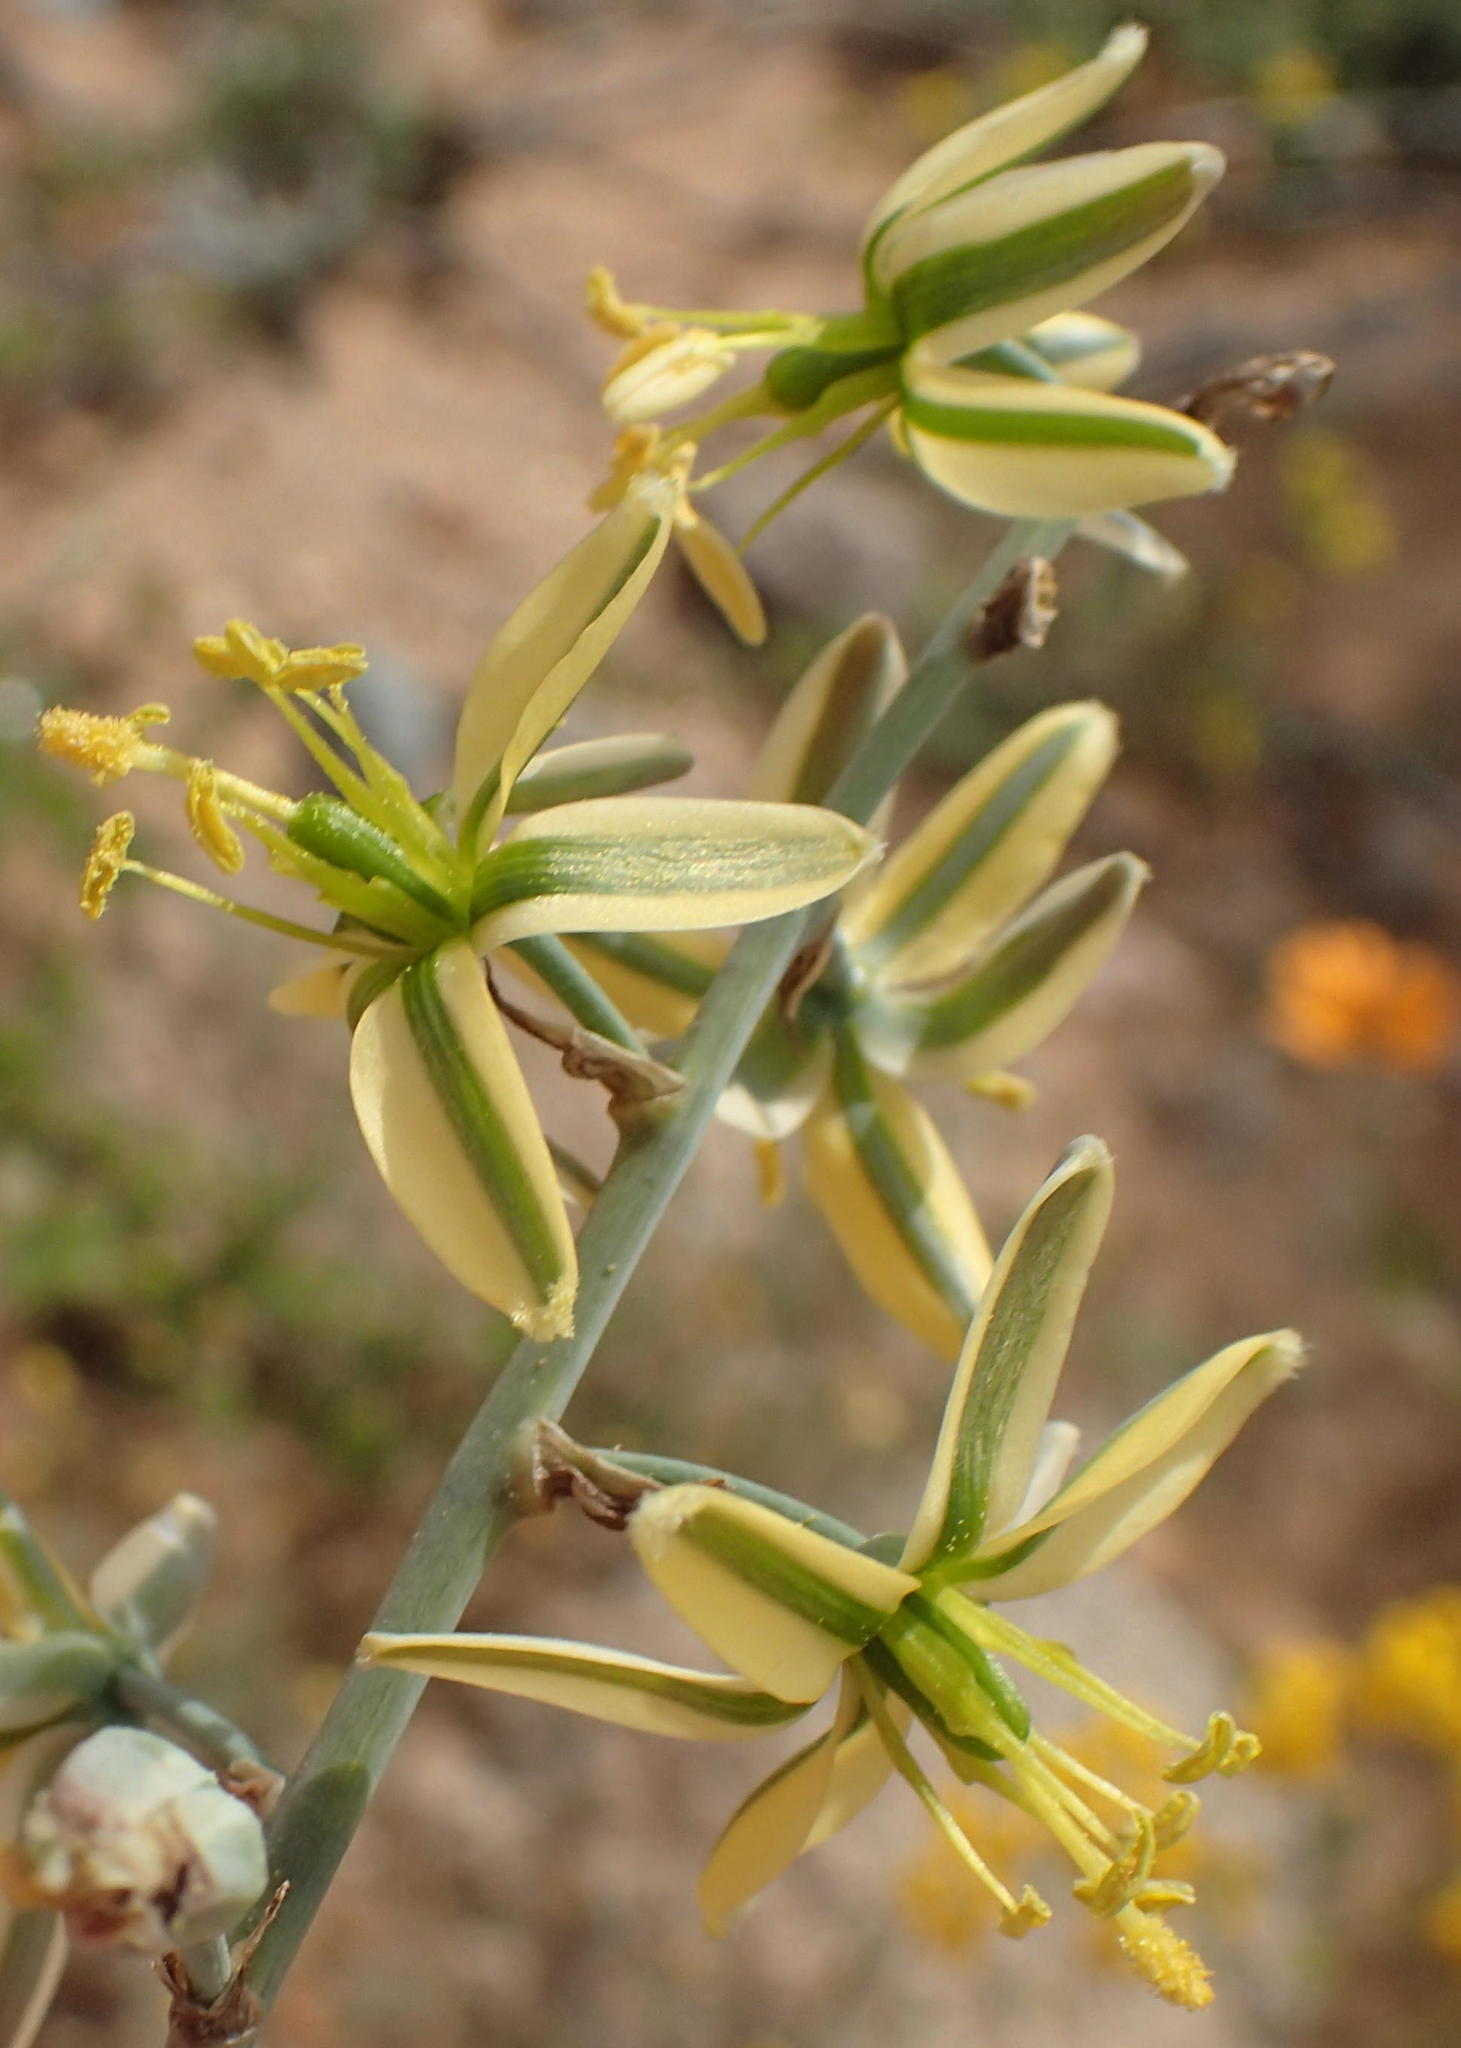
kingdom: Plantae
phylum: Tracheophyta
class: Liliopsida
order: Asparagales
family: Asparagaceae
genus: Albuca
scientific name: Albuca vittata
